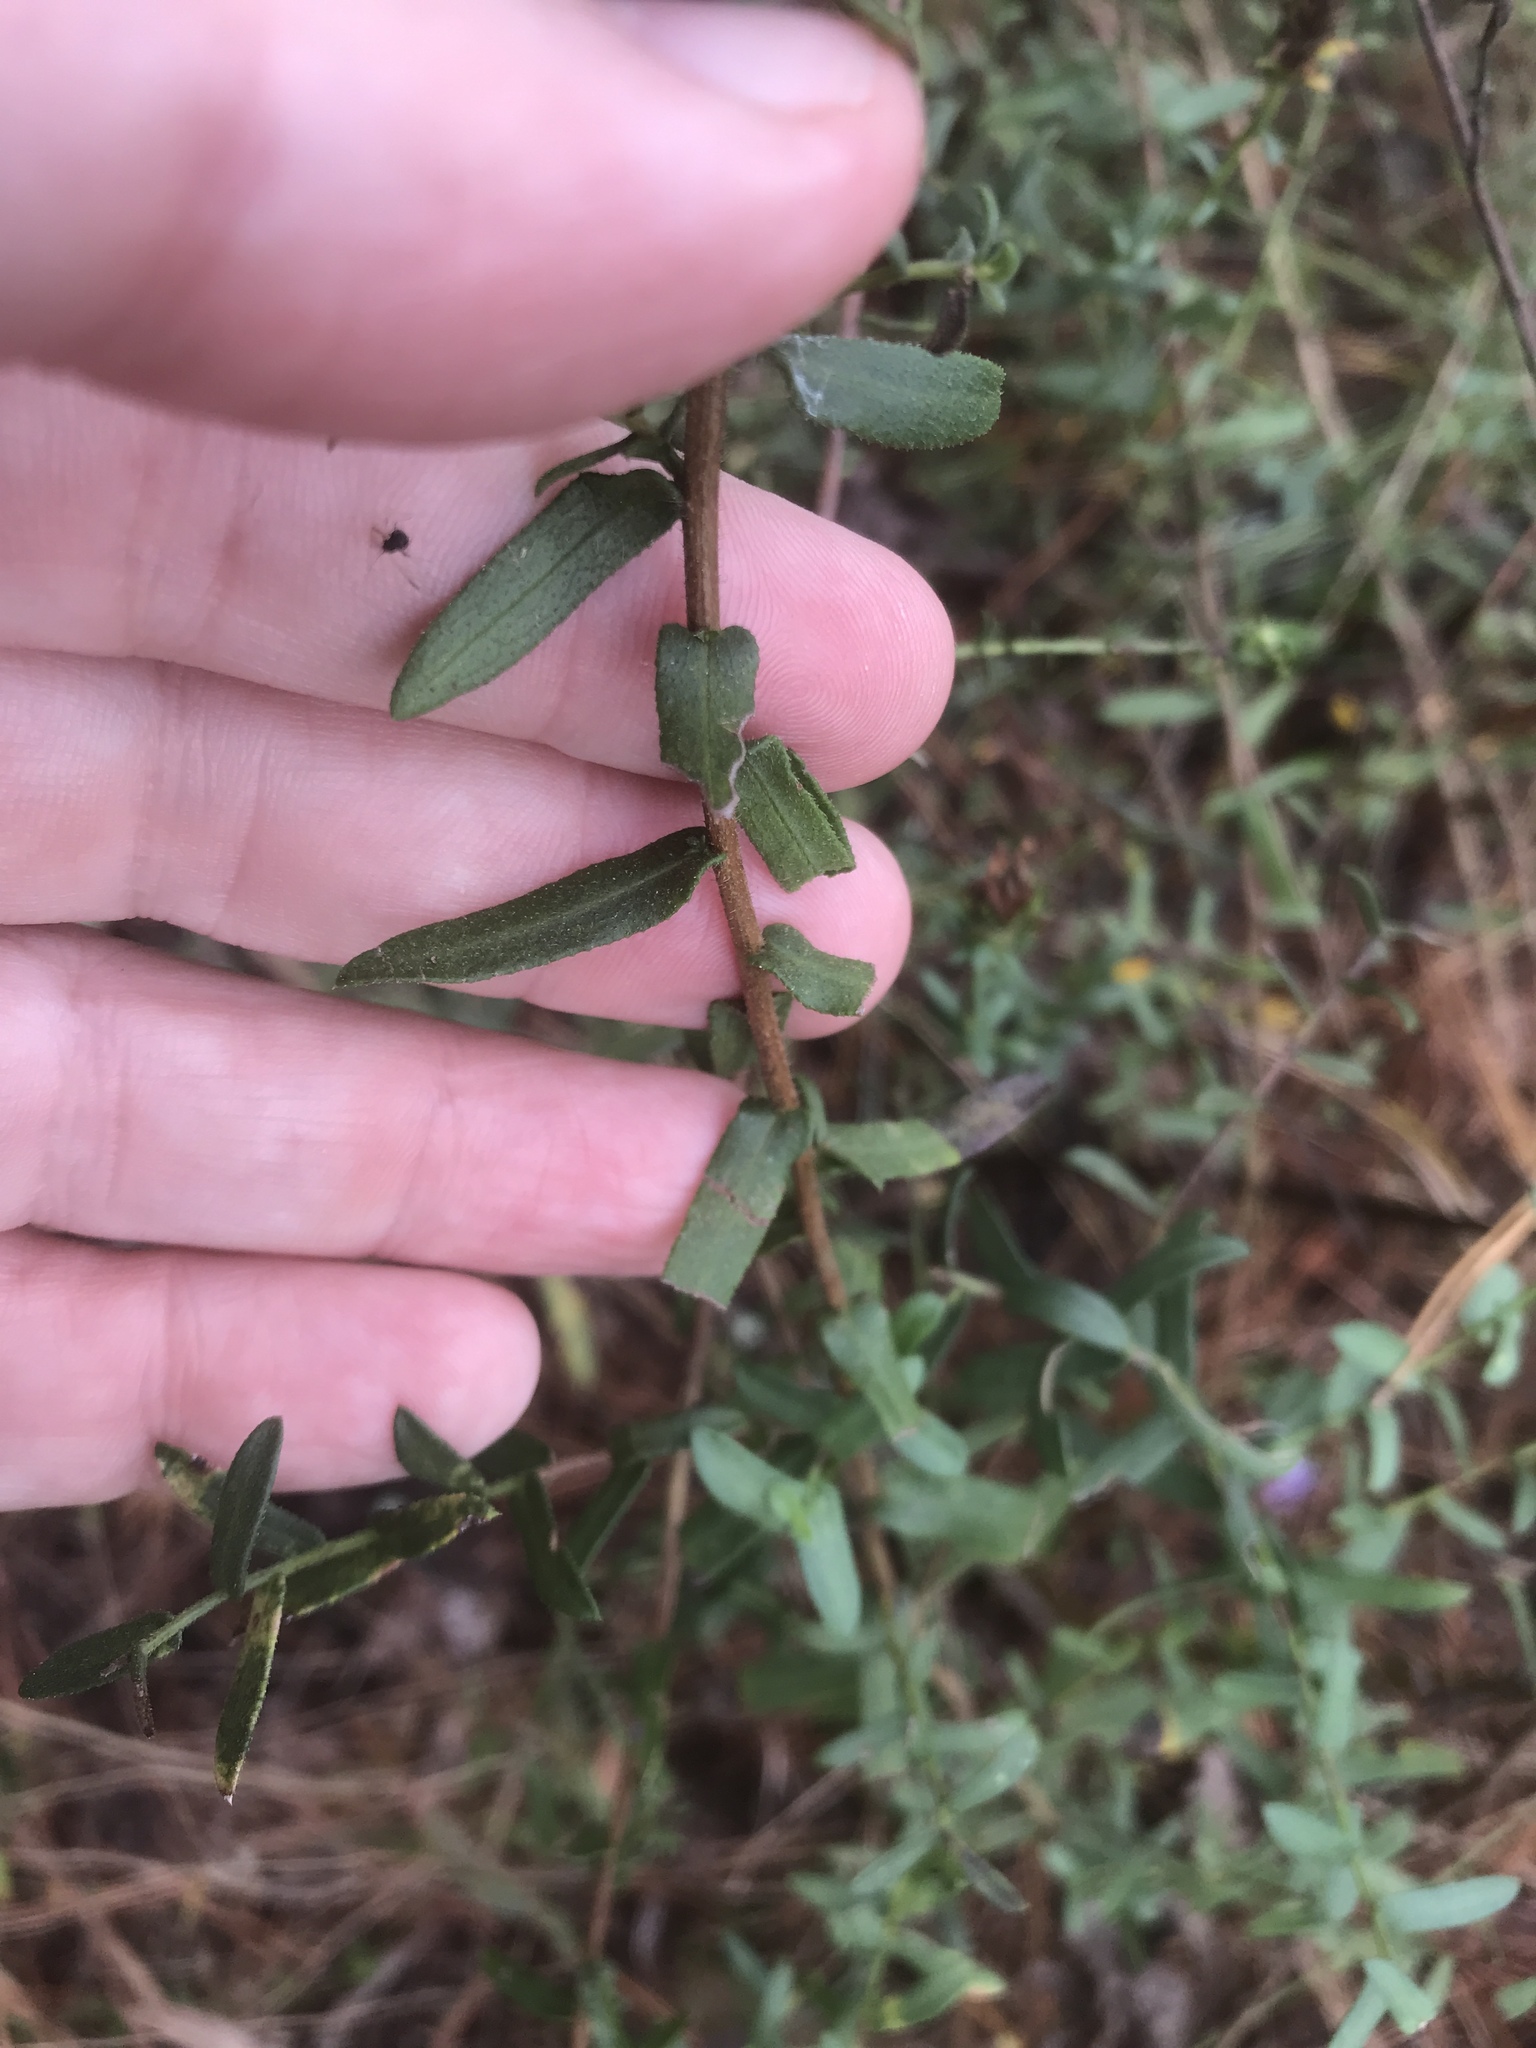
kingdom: Plantae
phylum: Tracheophyta
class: Magnoliopsida
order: Asterales
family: Asteraceae
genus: Symphyotrichum
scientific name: Symphyotrichum grandiflorum
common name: Big-head aster
